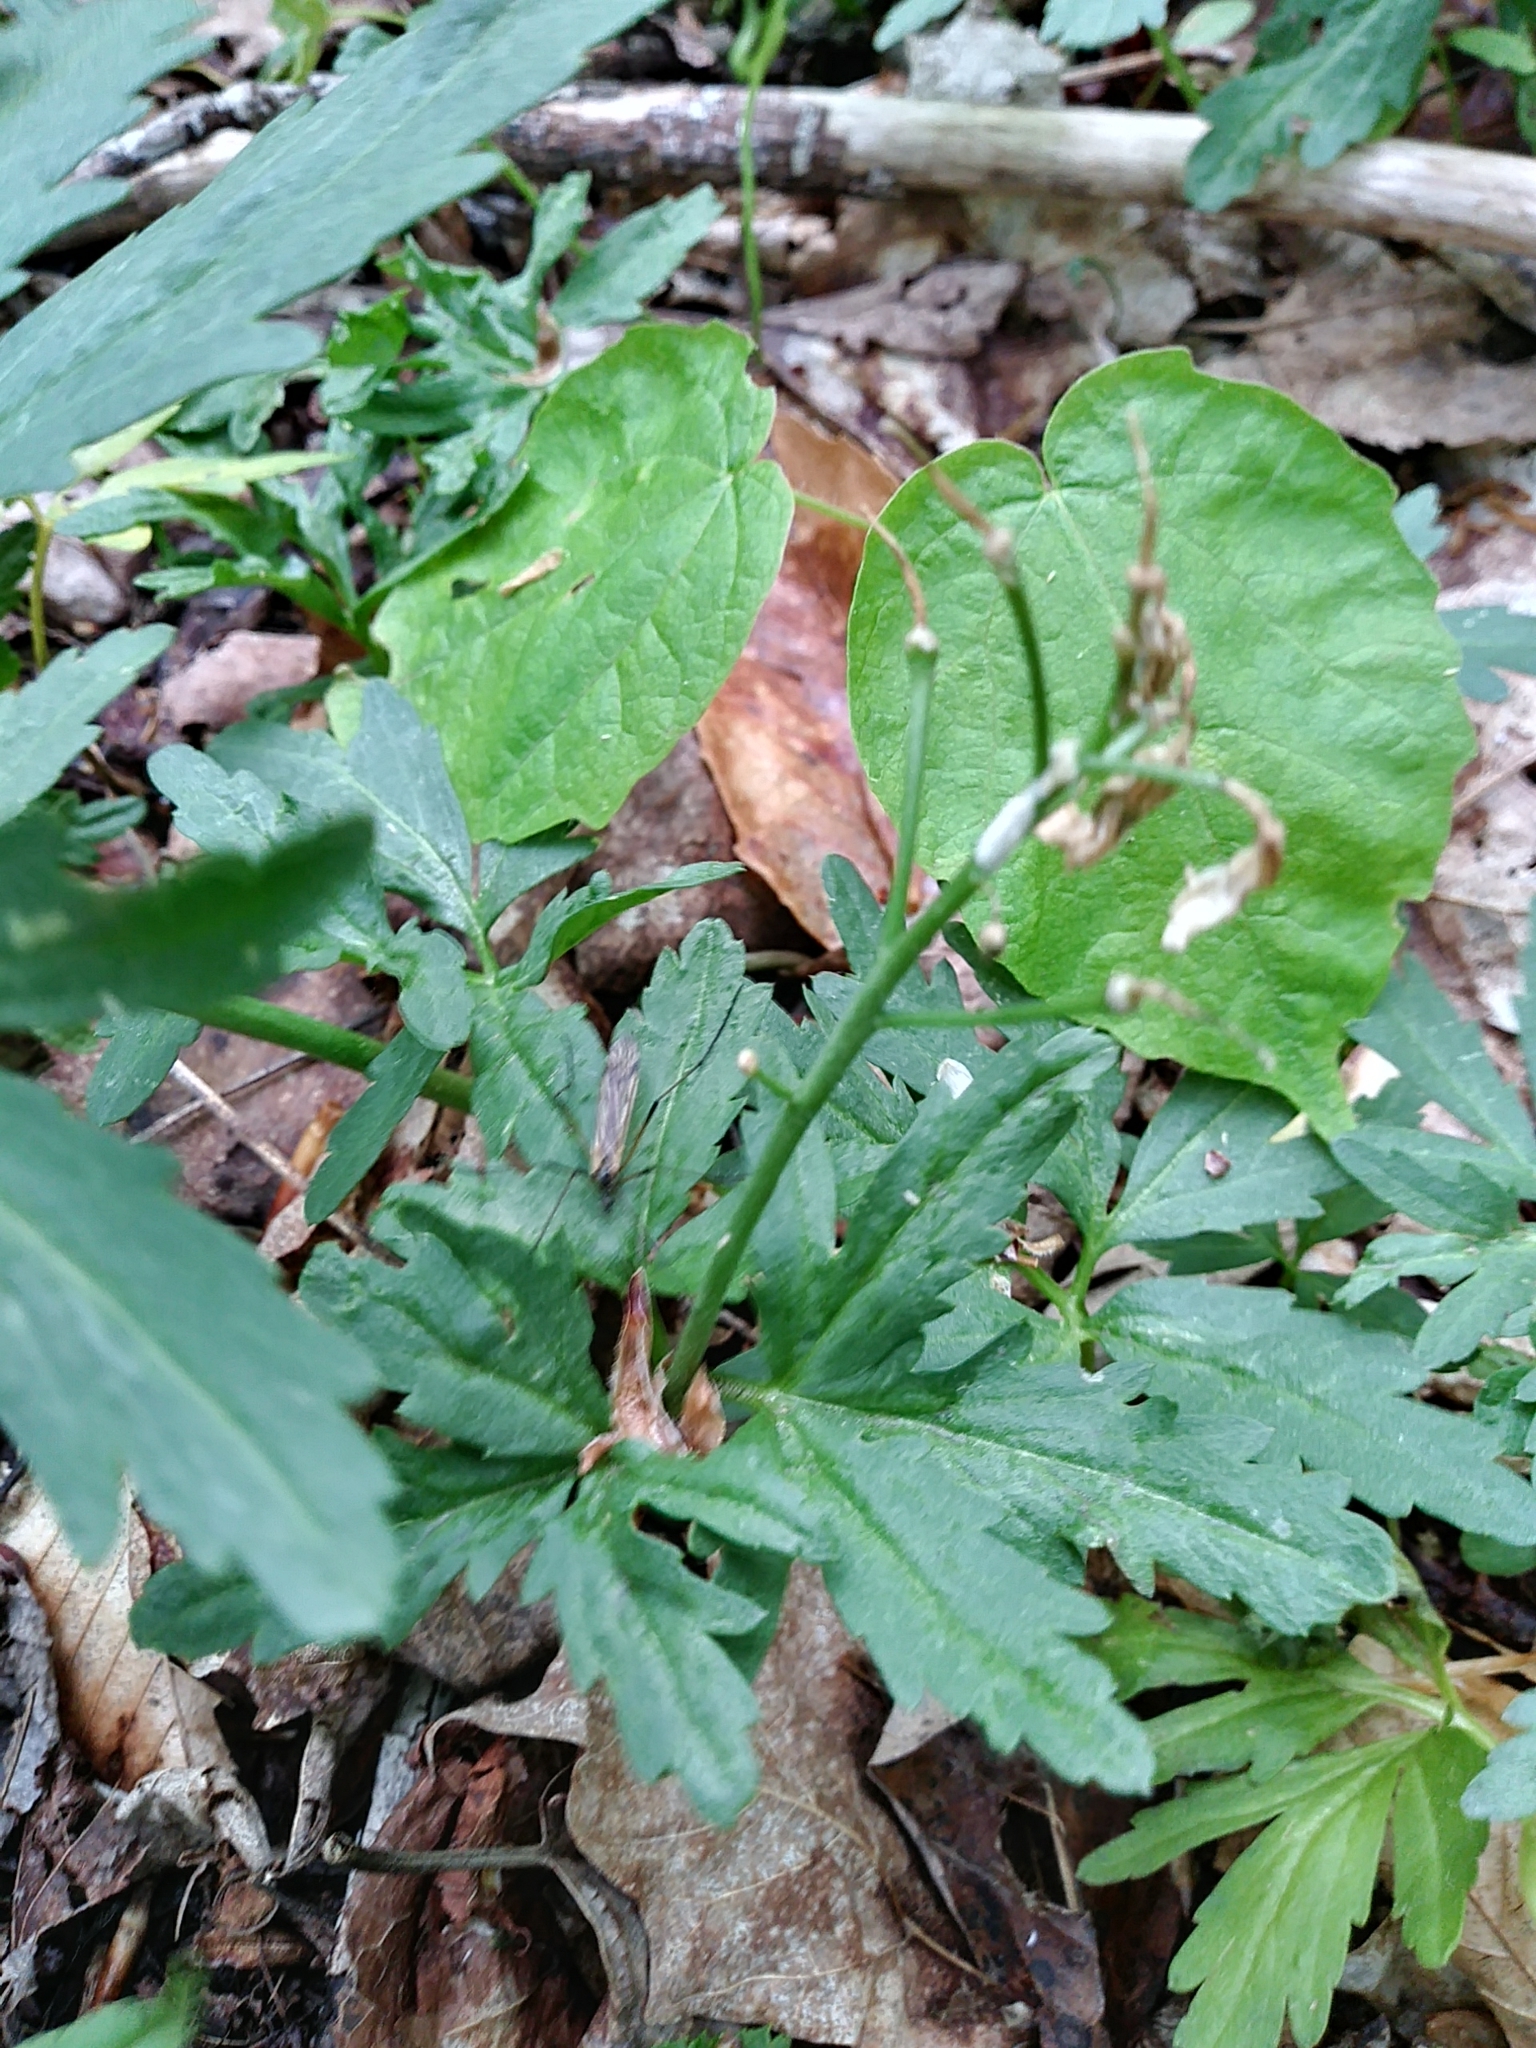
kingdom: Plantae
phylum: Tracheophyta
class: Magnoliopsida
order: Brassicales
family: Brassicaceae
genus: Cardamine
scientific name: Cardamine concatenata
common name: Cut-leaf toothcup
